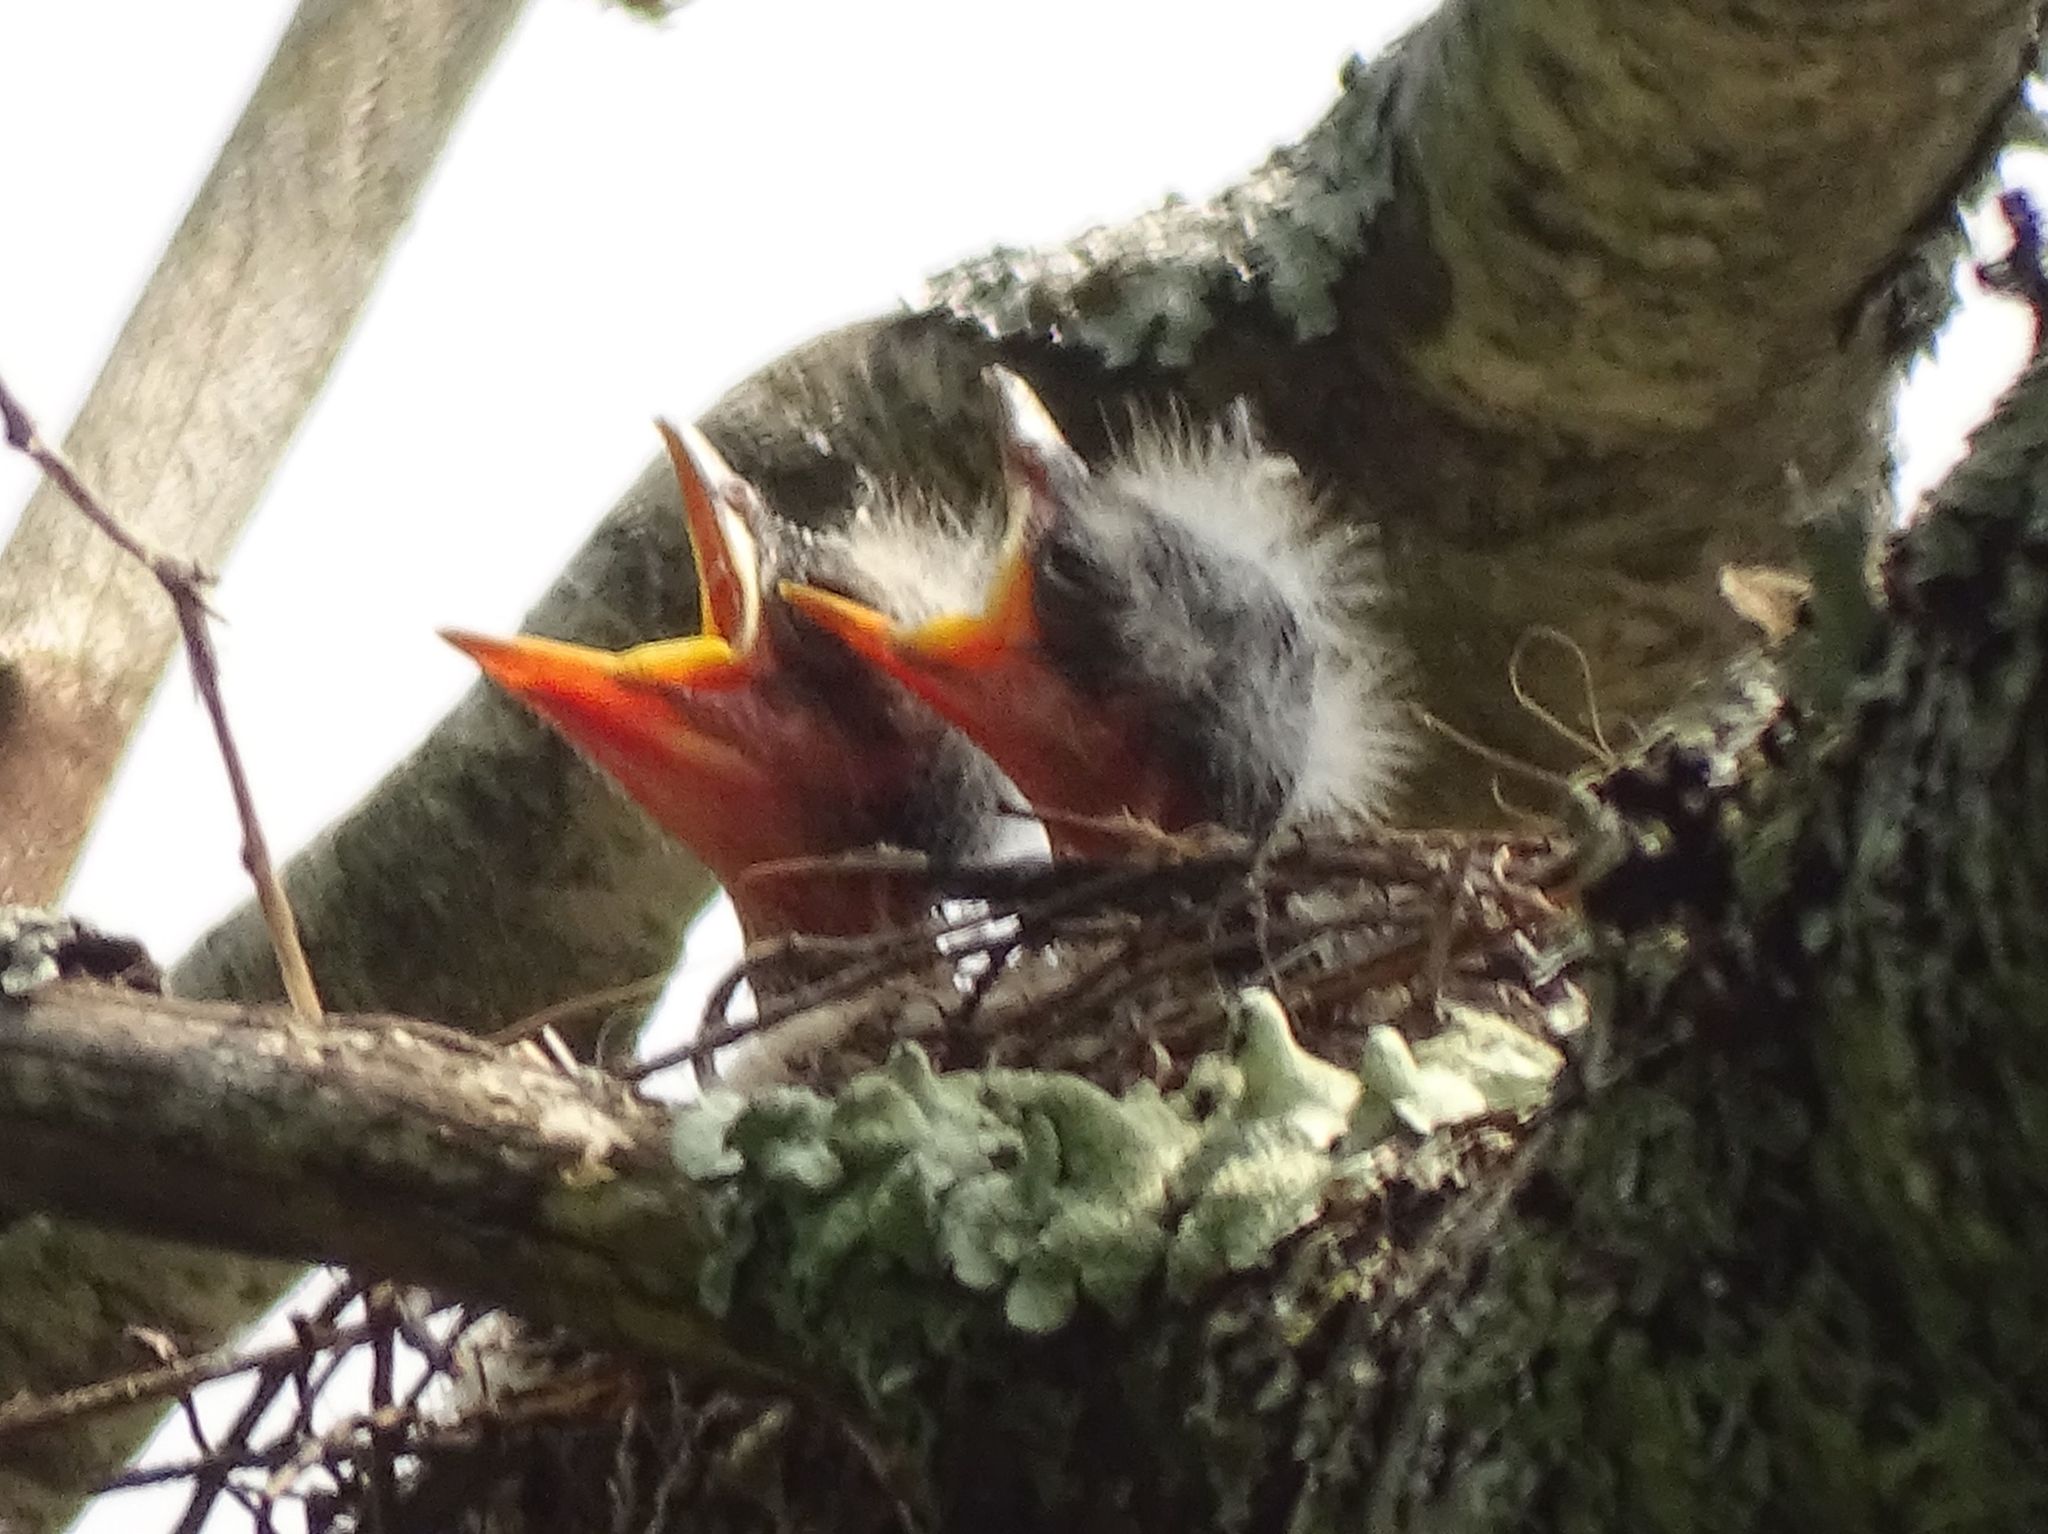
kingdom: Animalia
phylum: Chordata
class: Aves
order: Passeriformes
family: Tyrannidae
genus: Tyrannus
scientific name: Tyrannus tyrannus
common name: Eastern kingbird
